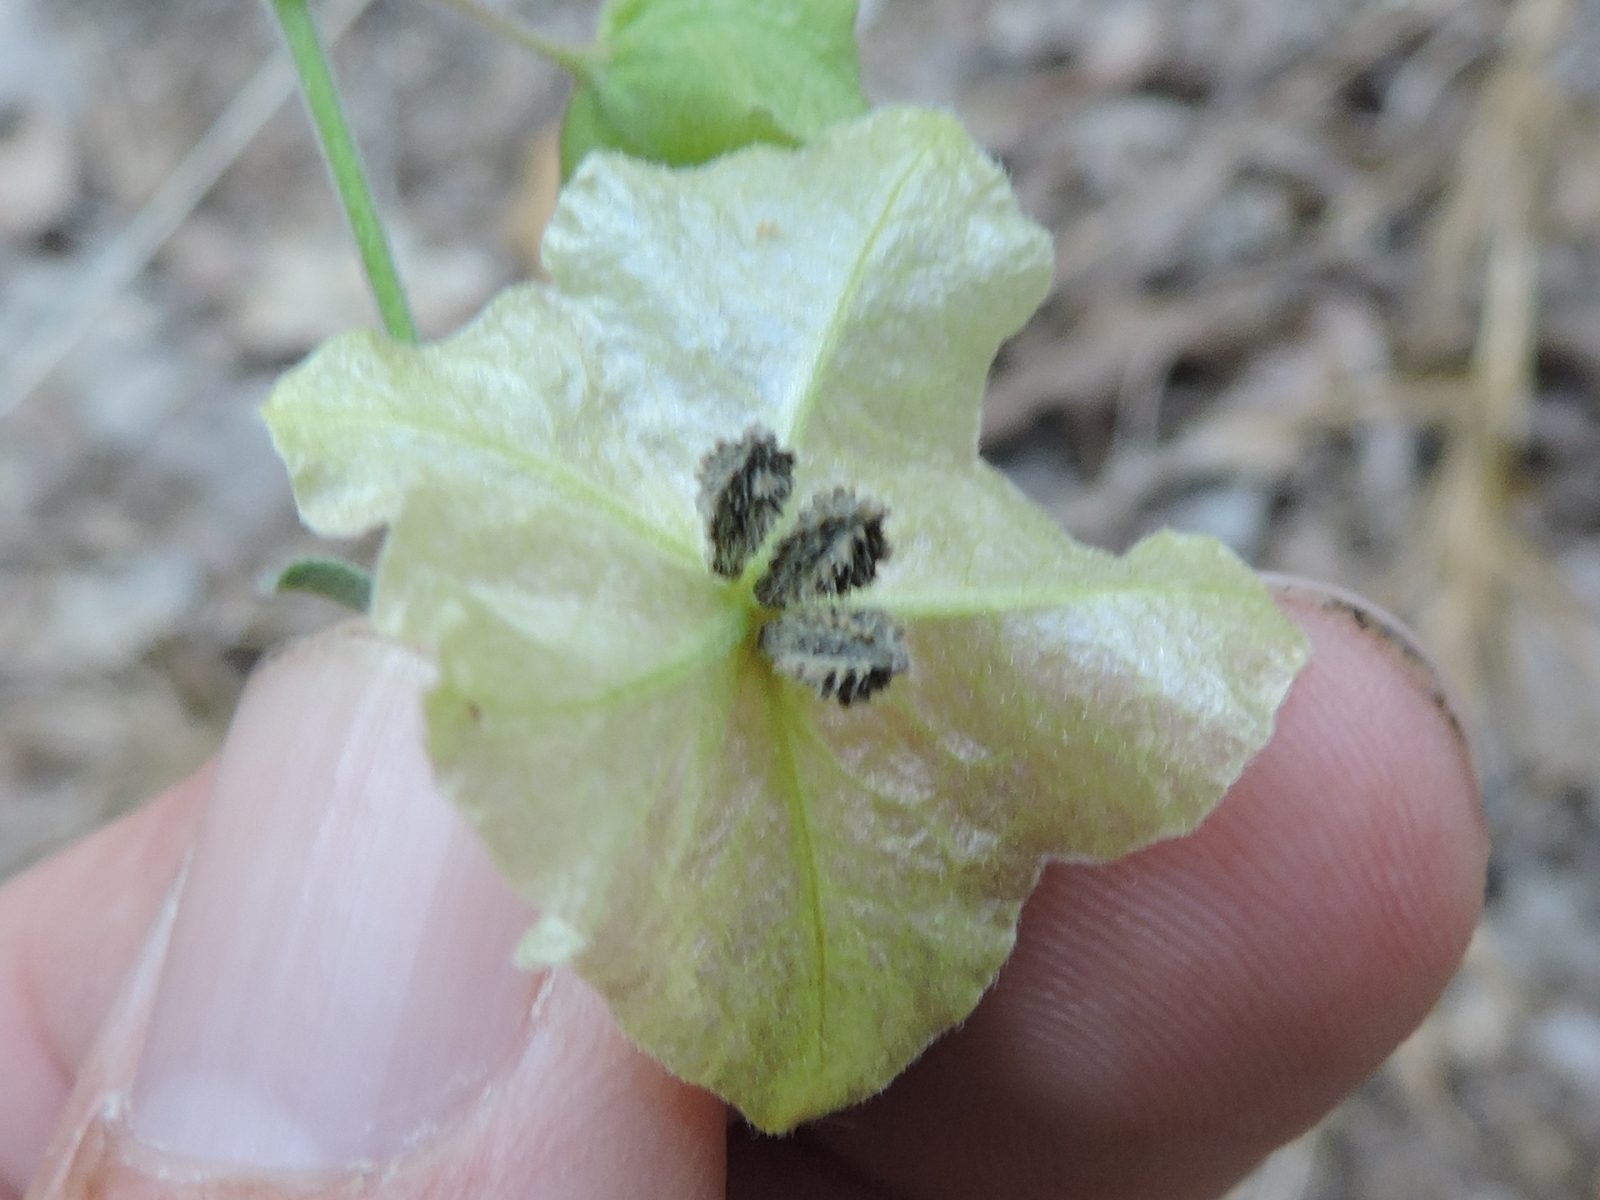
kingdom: Plantae
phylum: Tracheophyta
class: Magnoliopsida
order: Caryophyllales
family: Nyctaginaceae
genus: Mirabilis
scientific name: Mirabilis albida
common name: Hairy four-o'clock
